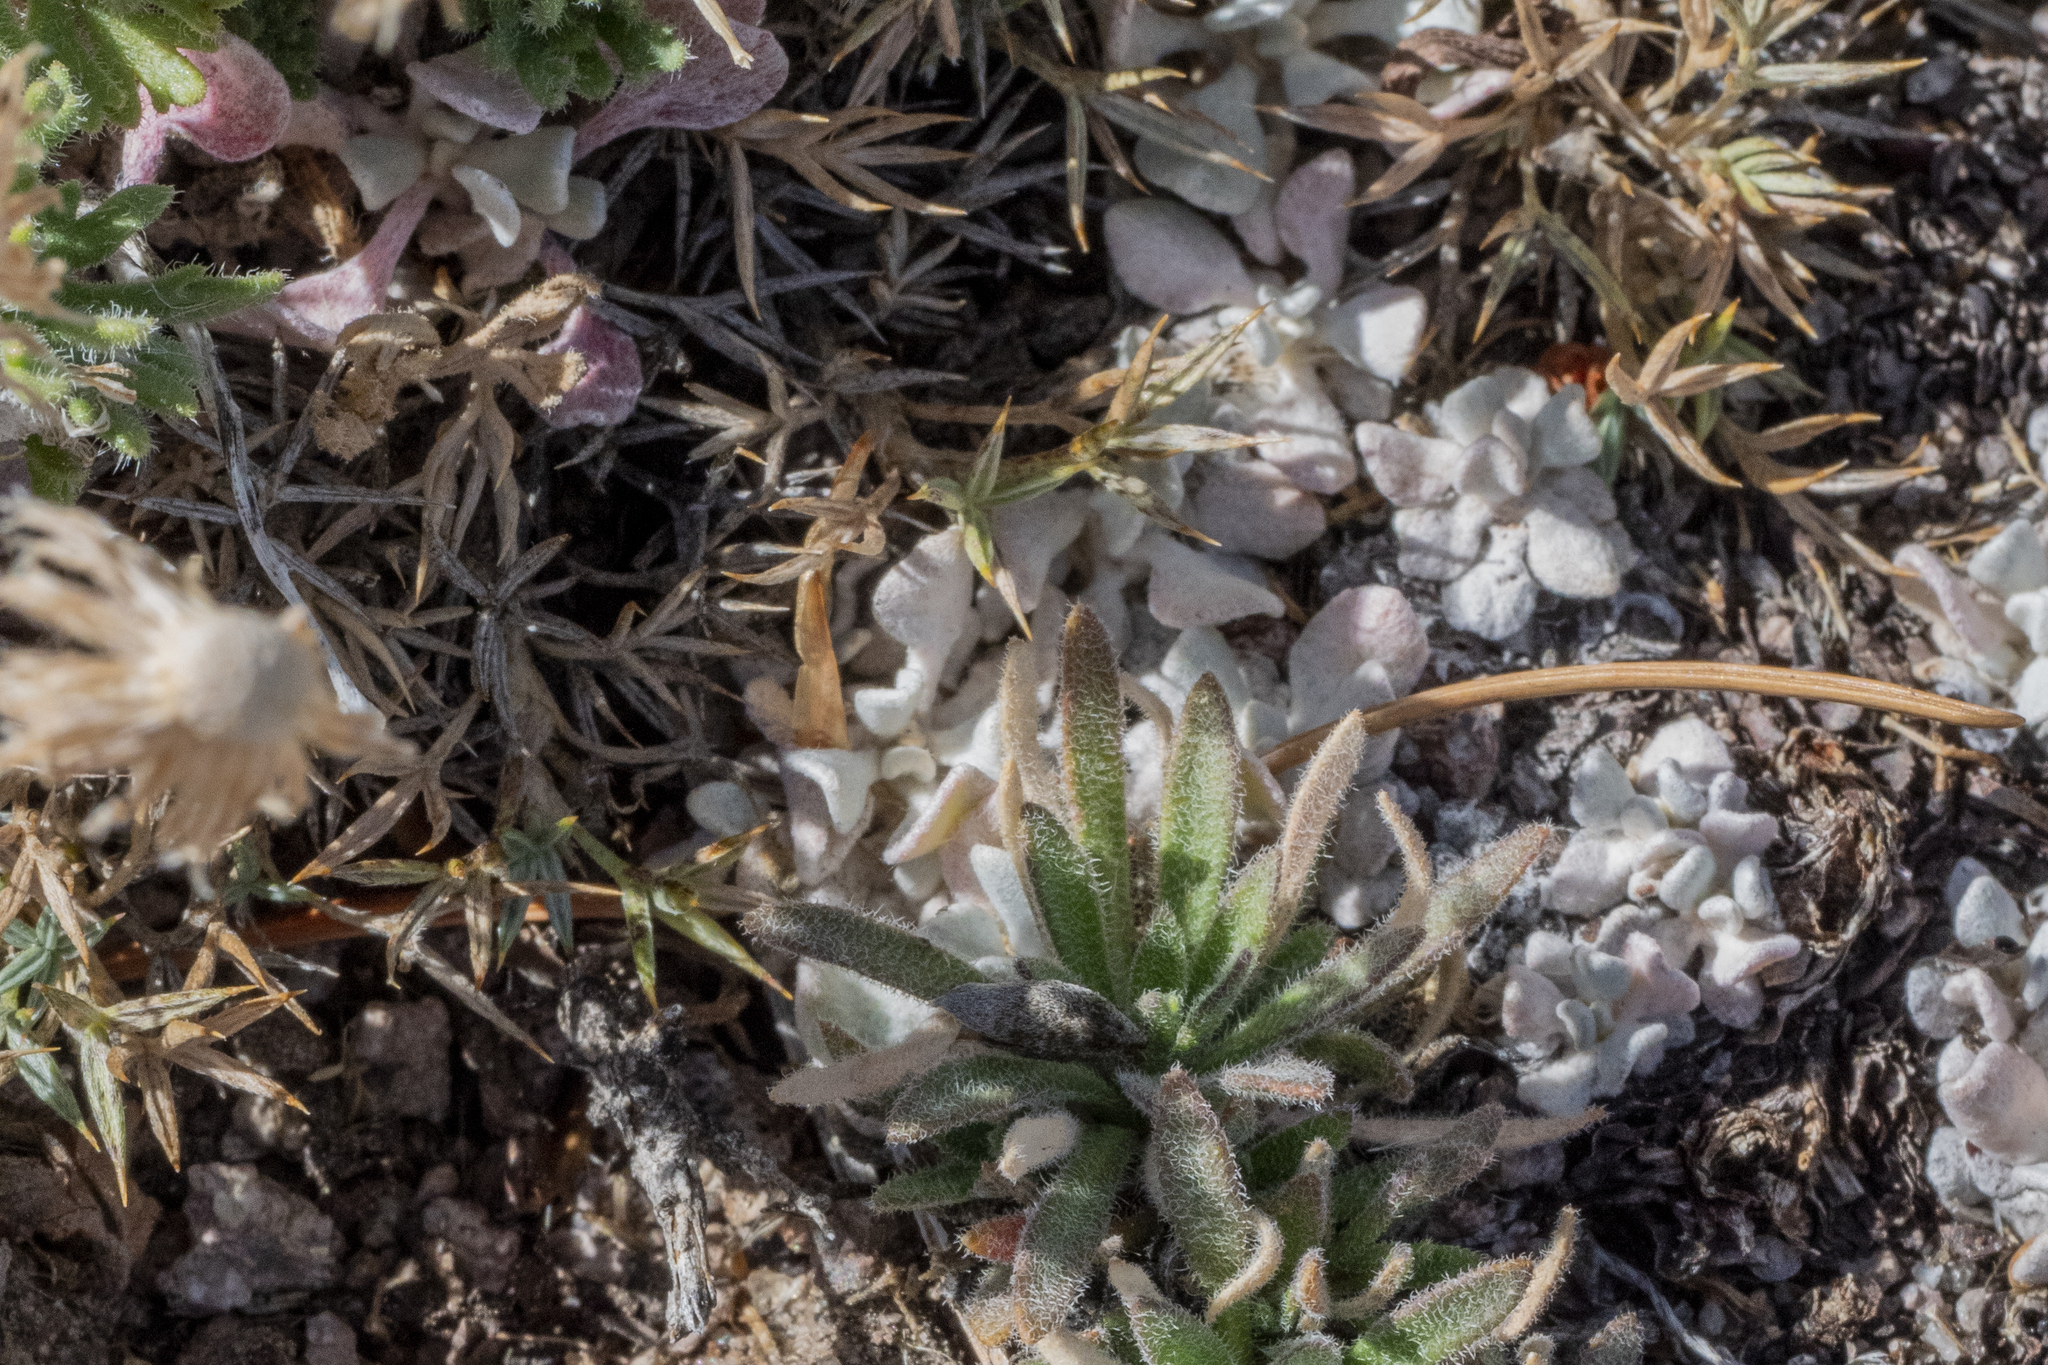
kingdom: Plantae
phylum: Tracheophyta
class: Magnoliopsida
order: Fabales
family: Fabaceae
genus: Astragalus
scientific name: Astragalus kentrophyta
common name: Prickly milk-vetch
